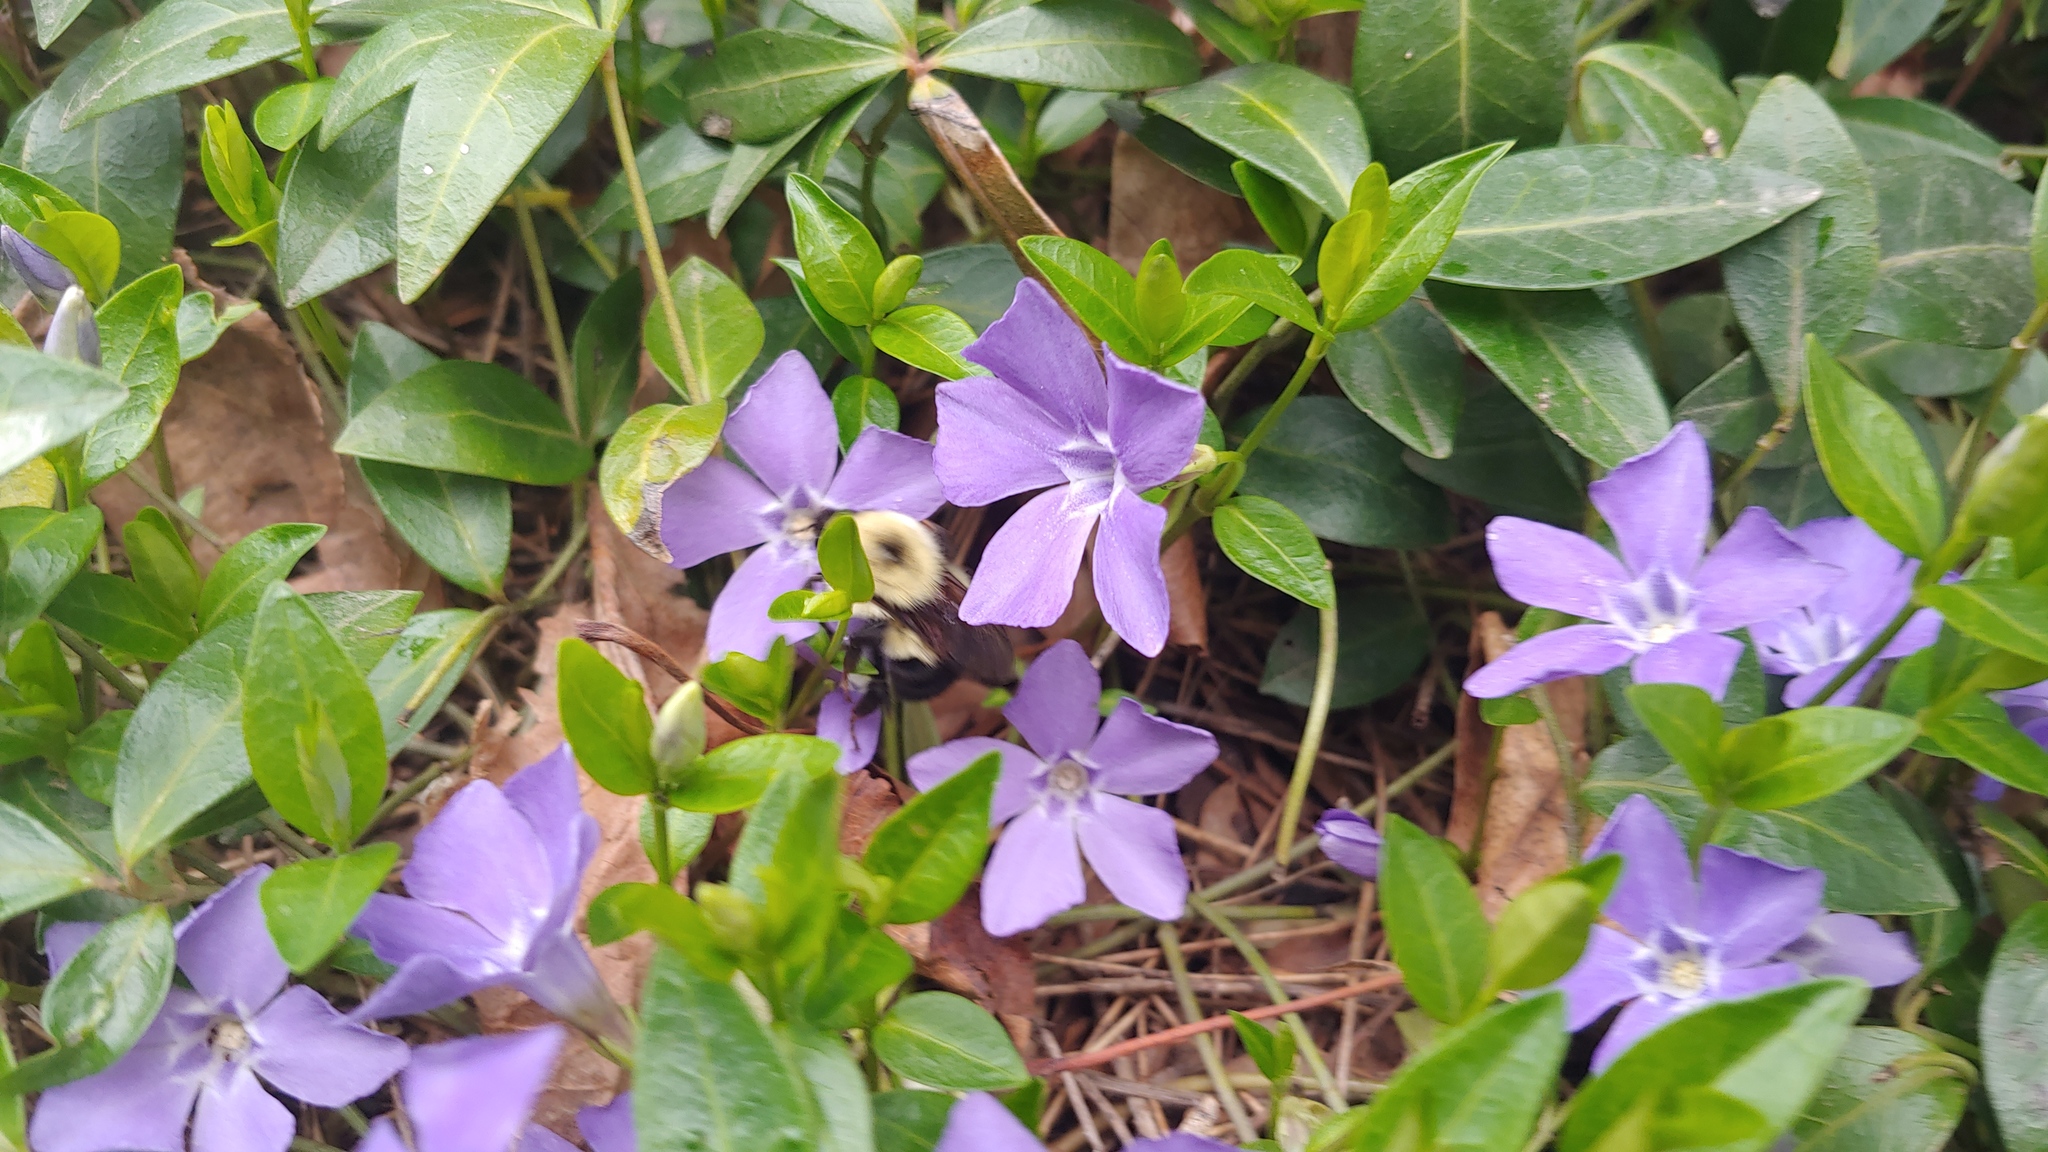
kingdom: Animalia
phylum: Arthropoda
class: Insecta
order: Hymenoptera
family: Apidae
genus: Bombus
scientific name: Bombus bimaculatus
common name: Two-spotted bumble bee
